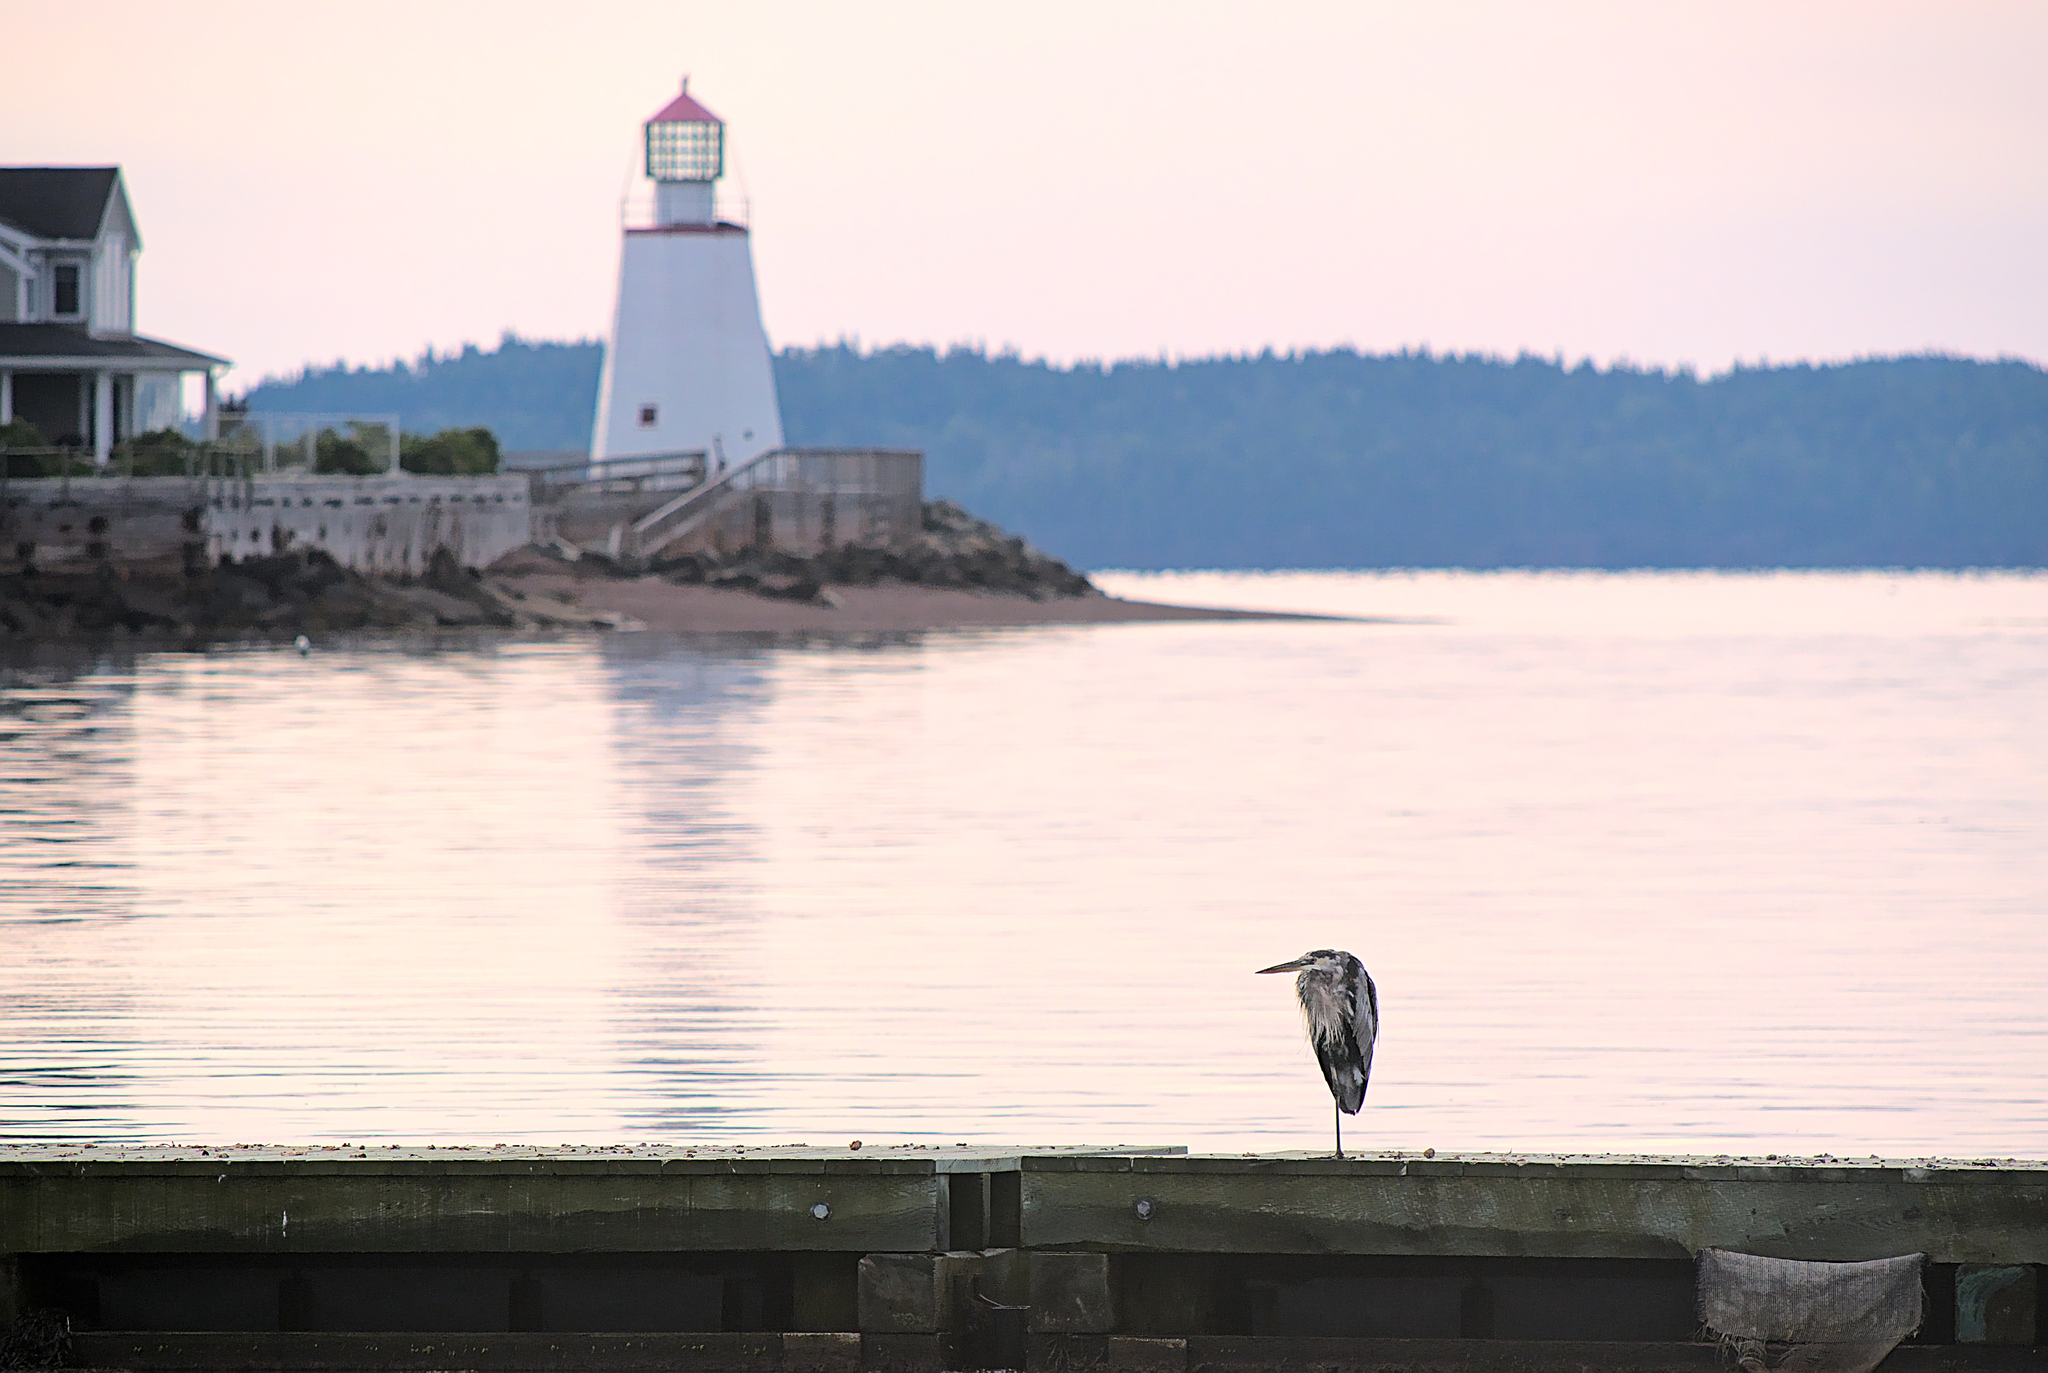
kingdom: Animalia
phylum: Chordata
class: Aves
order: Pelecaniformes
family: Ardeidae
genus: Ardea
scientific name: Ardea herodias
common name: Great blue heron
